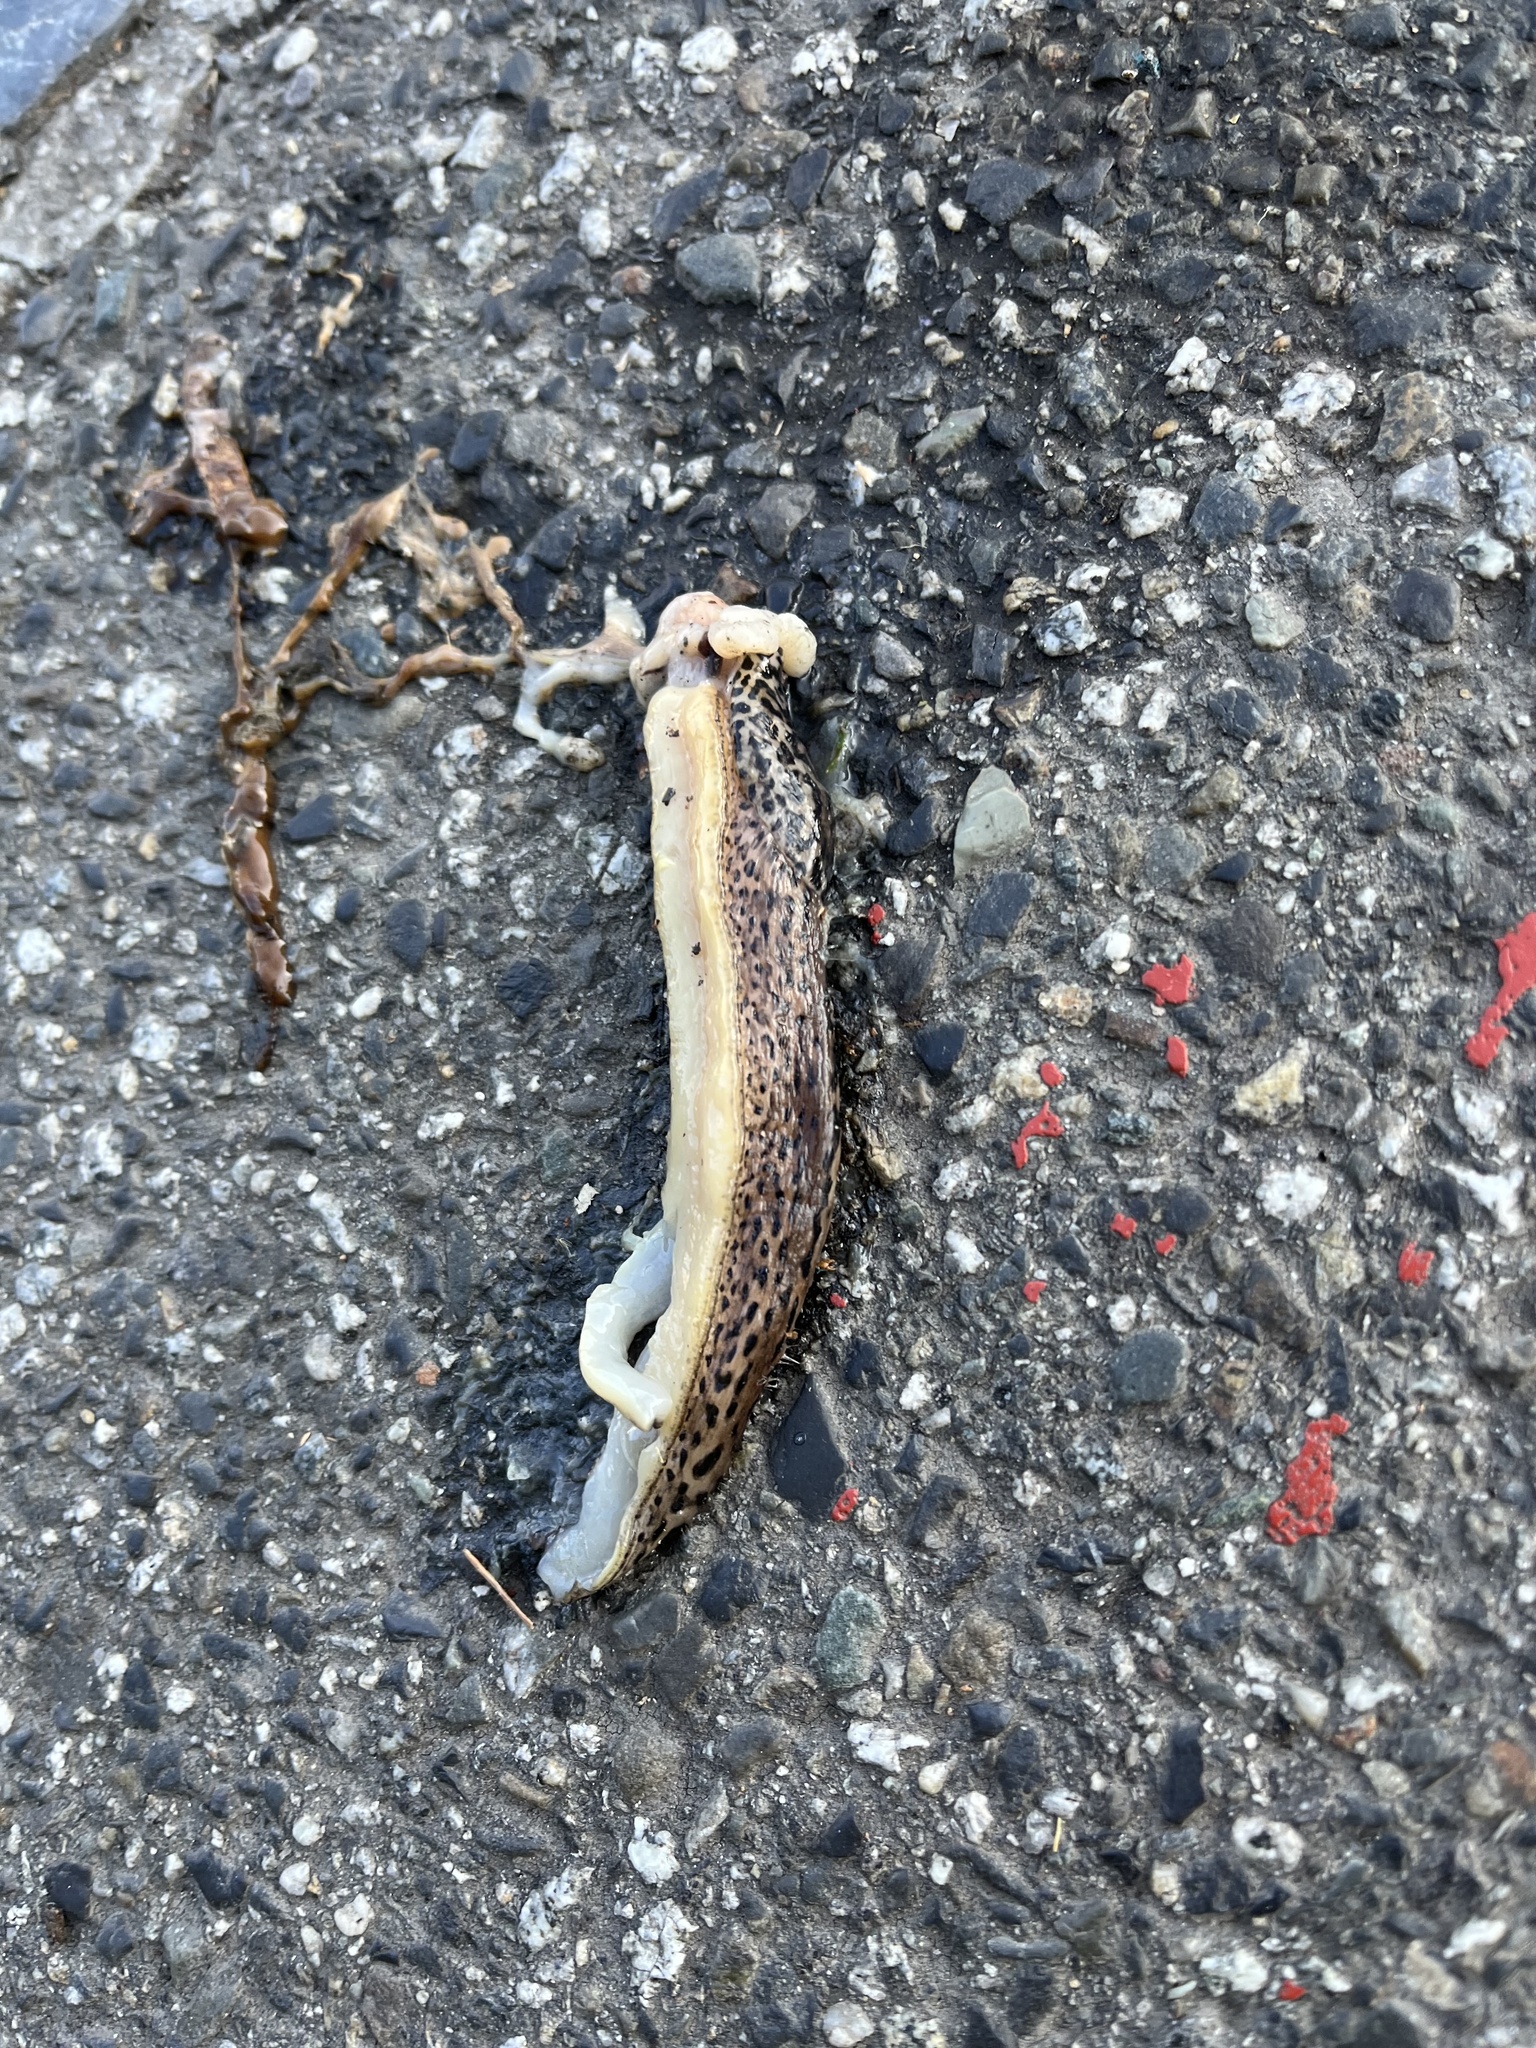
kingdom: Animalia
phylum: Mollusca
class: Gastropoda
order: Stylommatophora
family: Limacidae
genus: Limax
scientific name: Limax maximus
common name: Great grey slug
